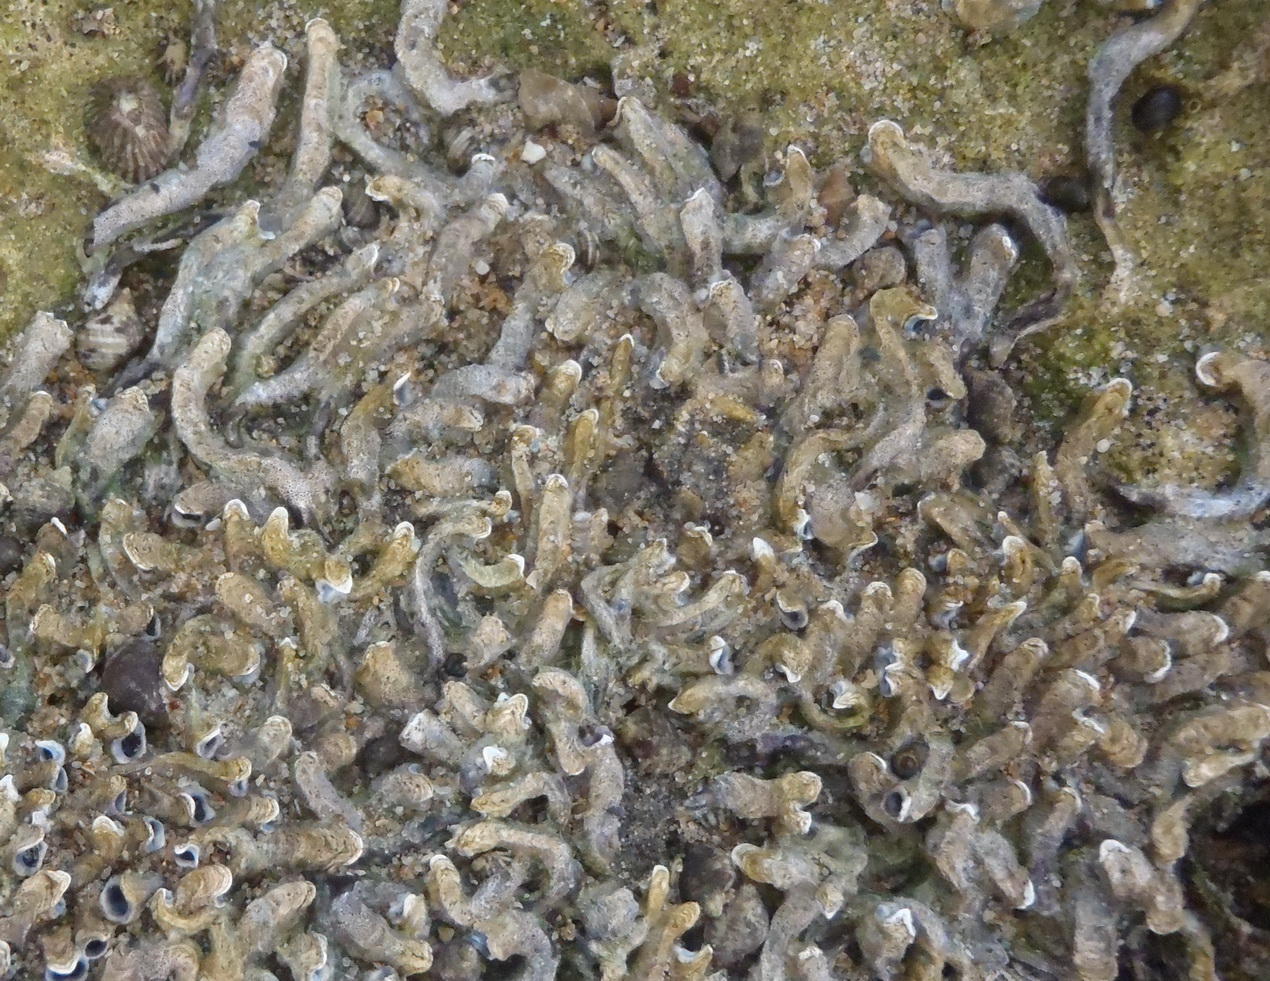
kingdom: Animalia
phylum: Annelida
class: Polychaeta
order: Sabellida
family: Serpulidae
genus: Spirobranchus
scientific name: Spirobranchus kraussii
